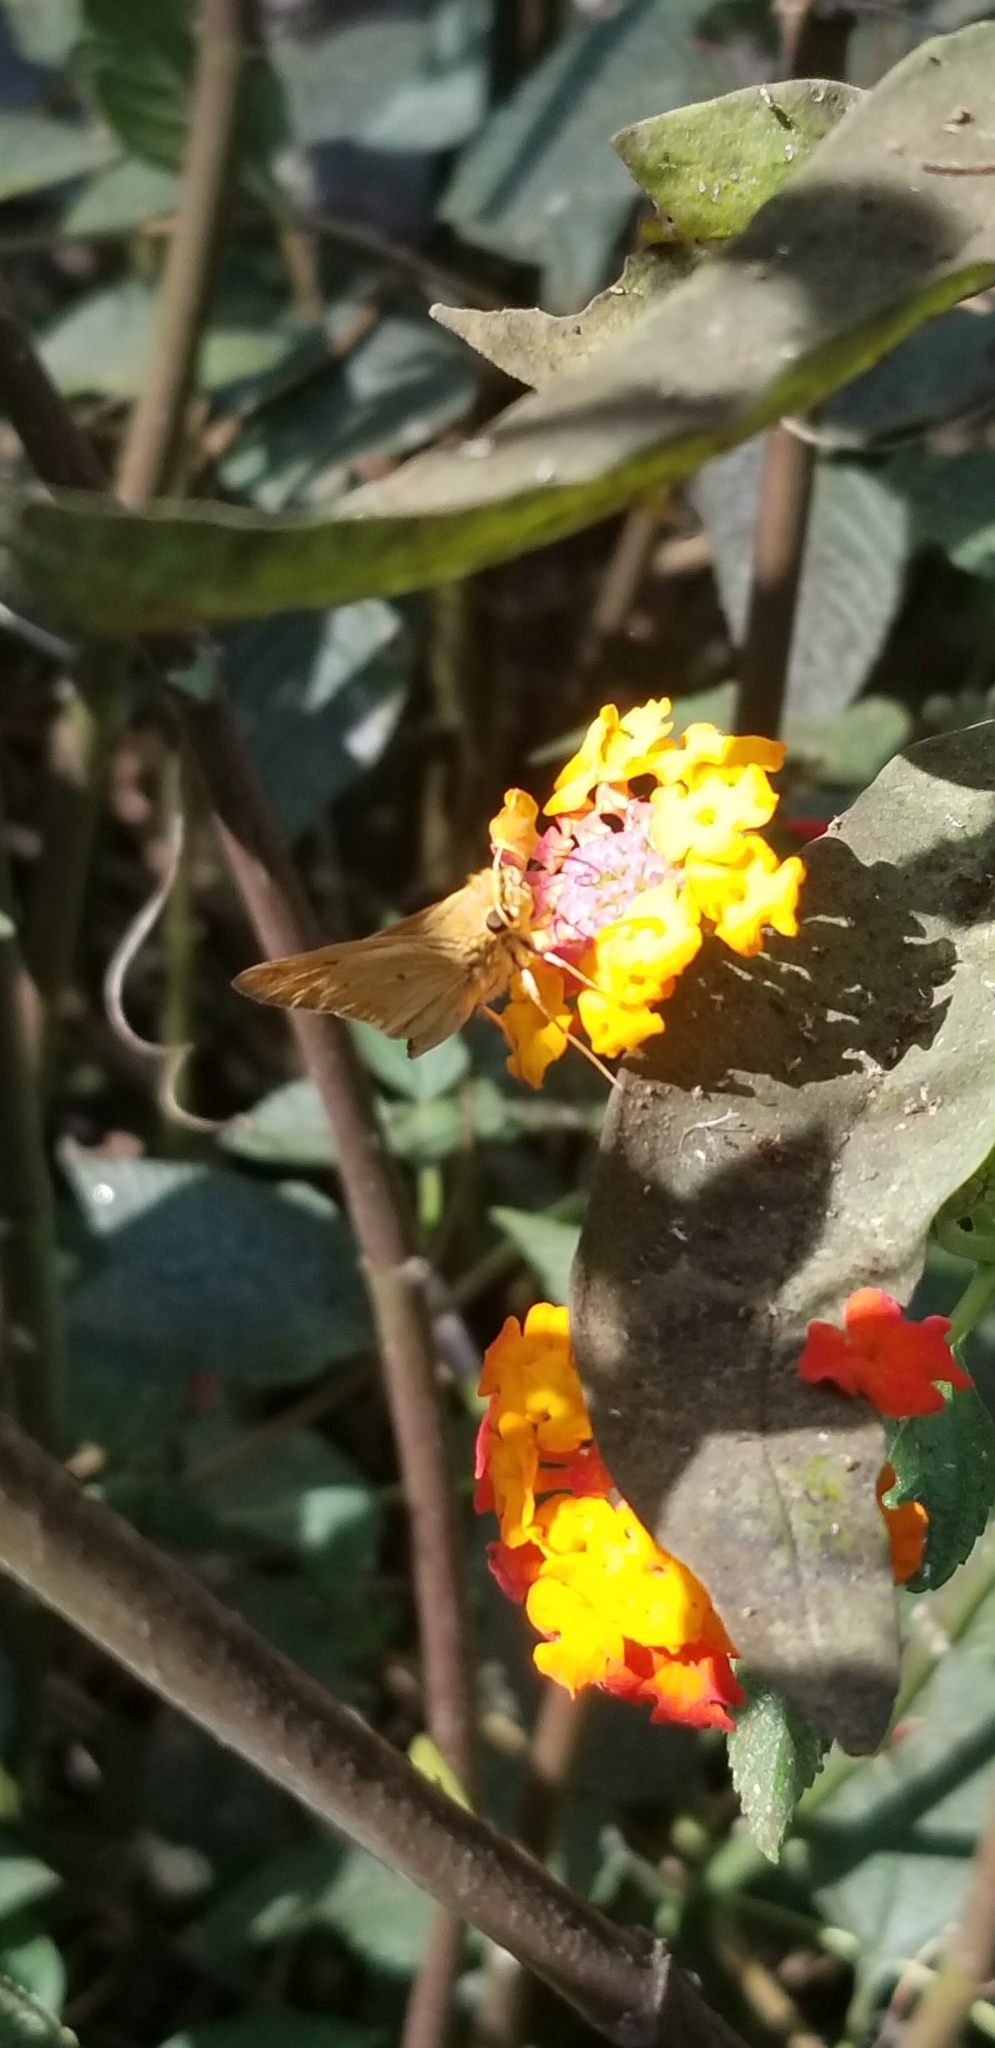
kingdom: Animalia
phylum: Arthropoda
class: Insecta
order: Lepidoptera
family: Hesperiidae
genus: Hylephila
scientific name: Hylephila phyleus
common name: Fiery skipper
